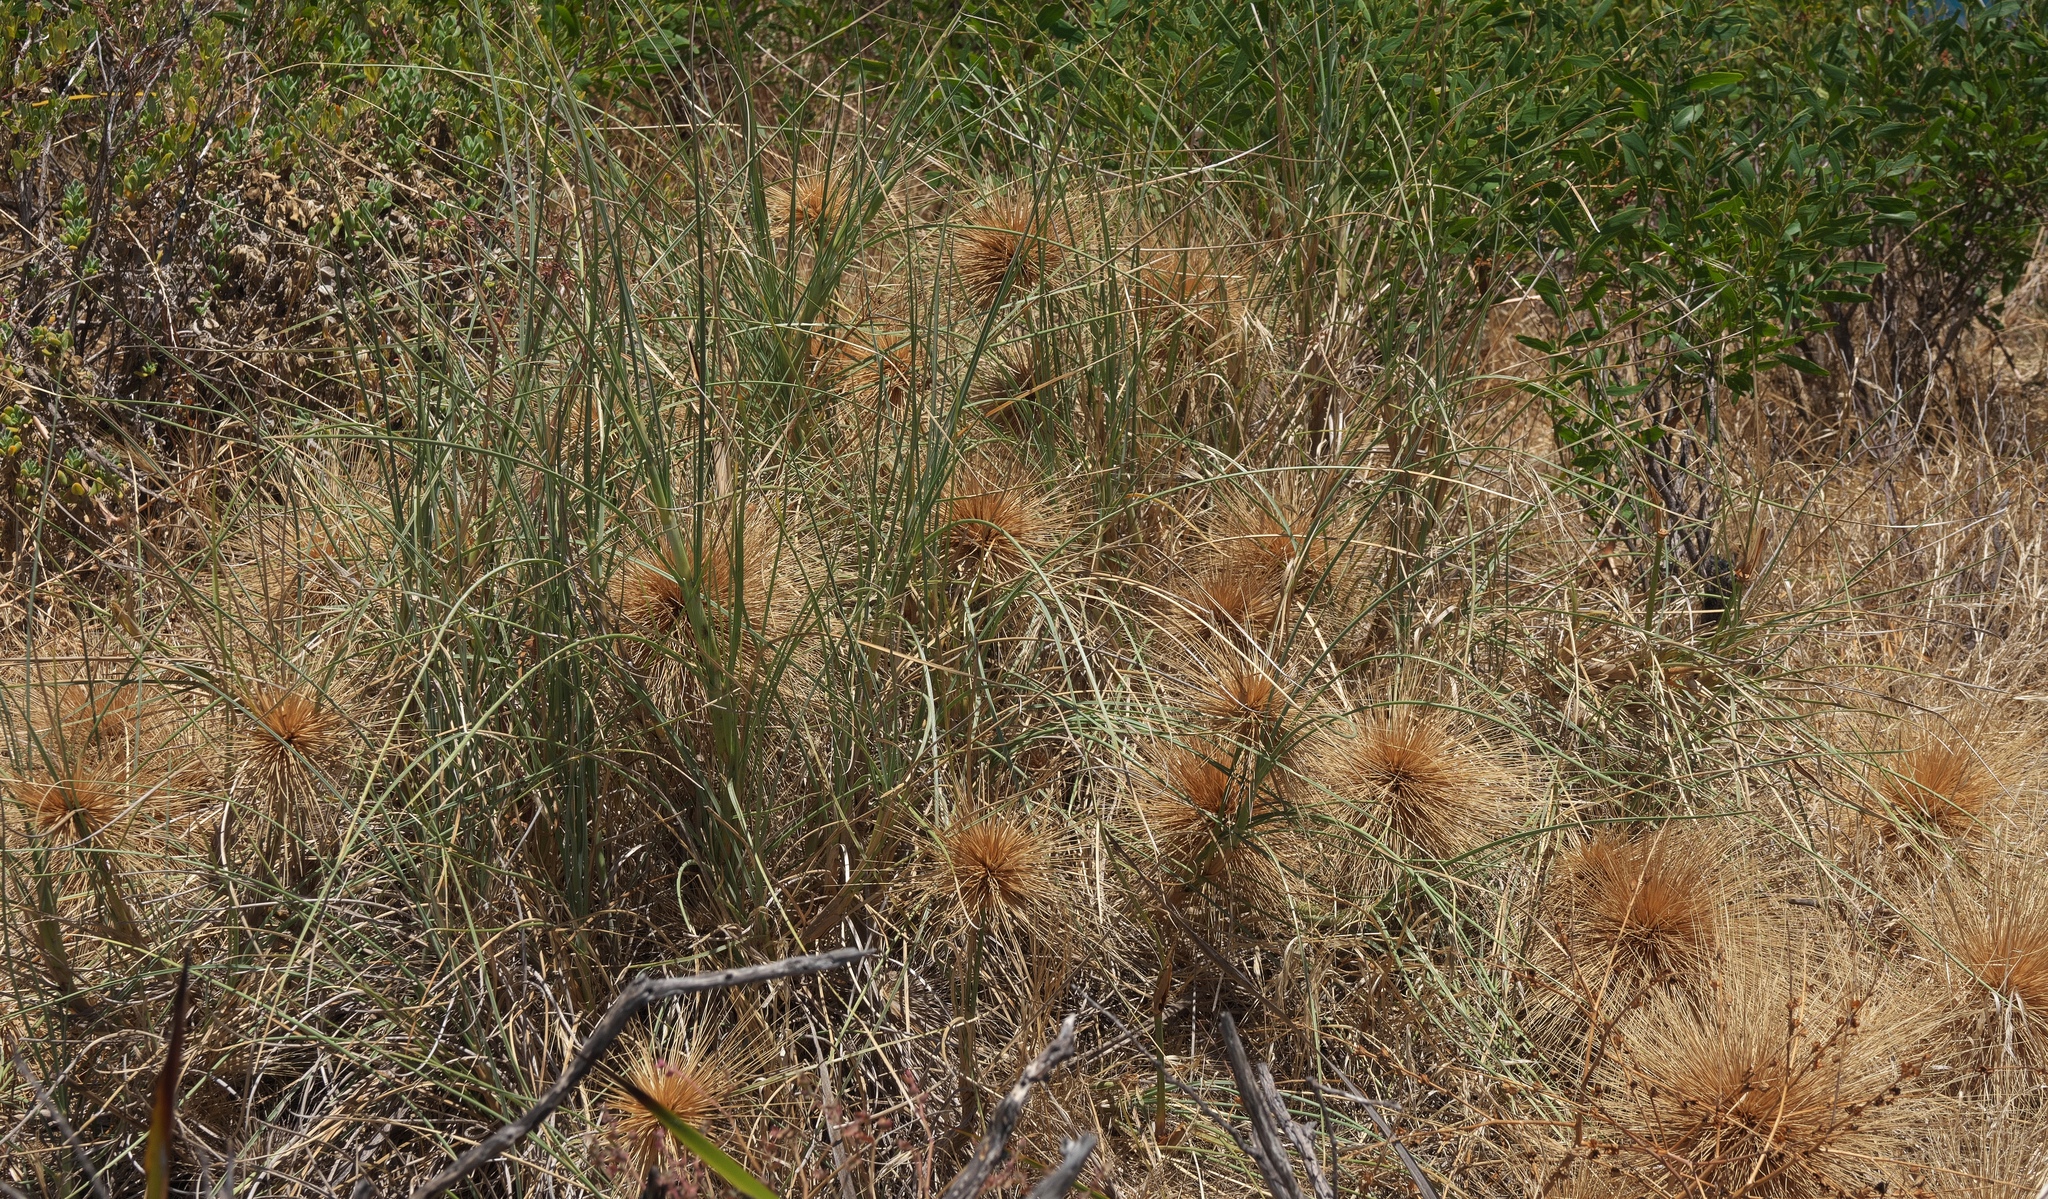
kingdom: Plantae
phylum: Tracheophyta
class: Liliopsida
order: Poales
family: Poaceae
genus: Spinifex
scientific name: Spinifex longifolius
